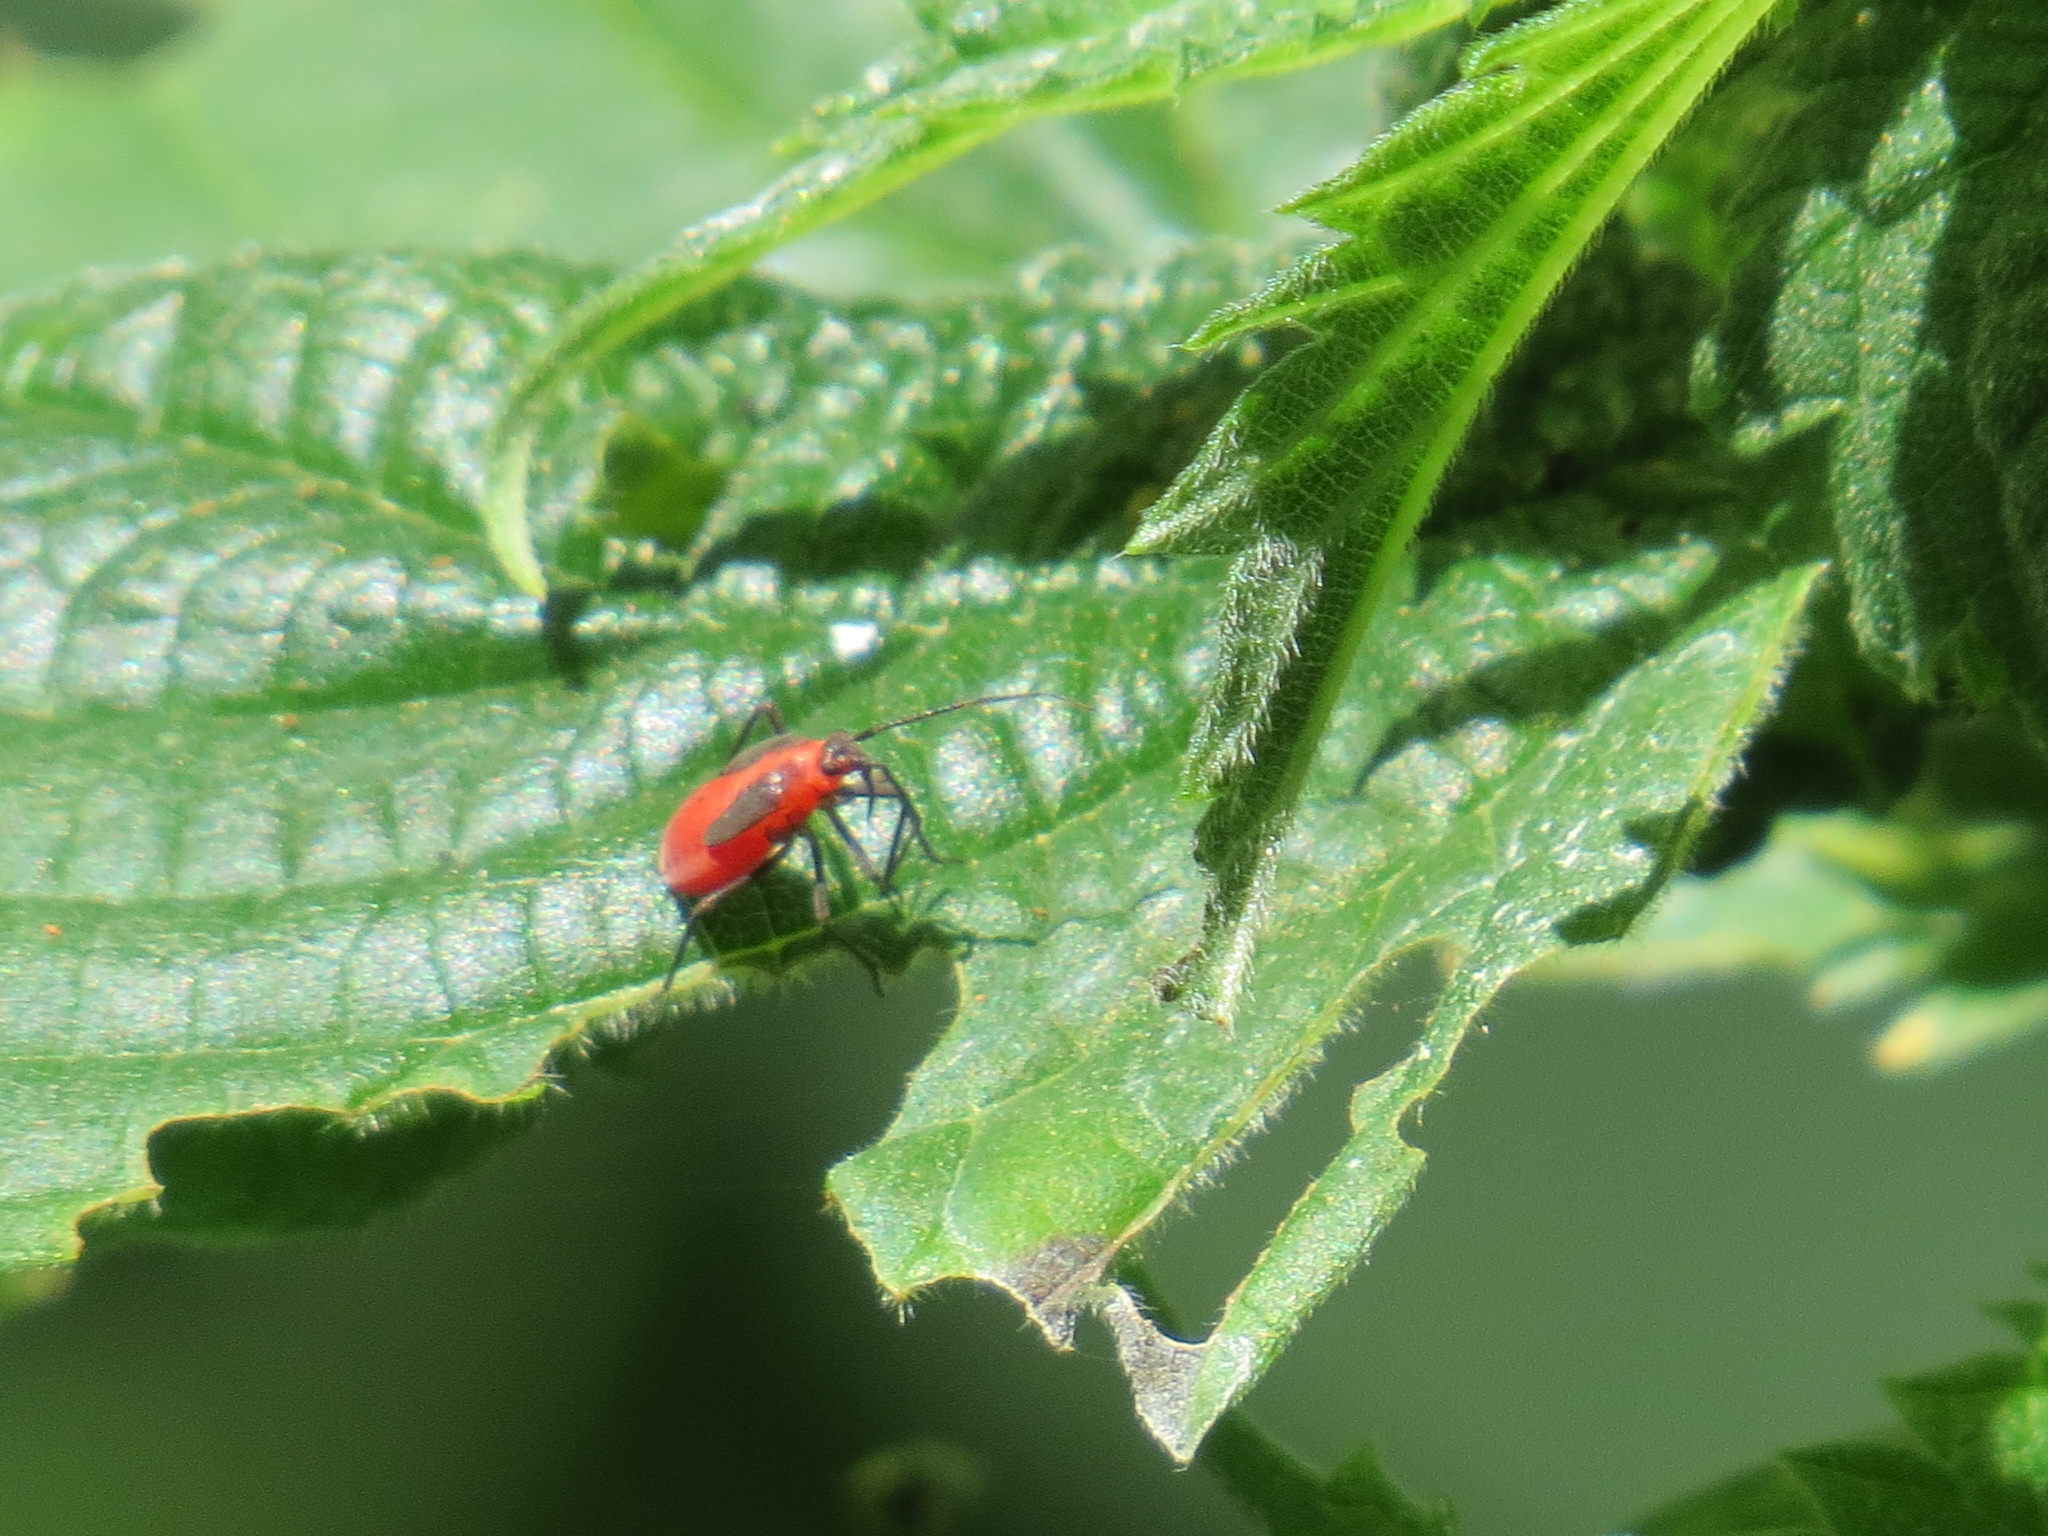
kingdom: Animalia
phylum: Arthropoda
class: Insecta
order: Hemiptera
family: Rhopalidae
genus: Boisea
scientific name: Boisea rubrolineata
